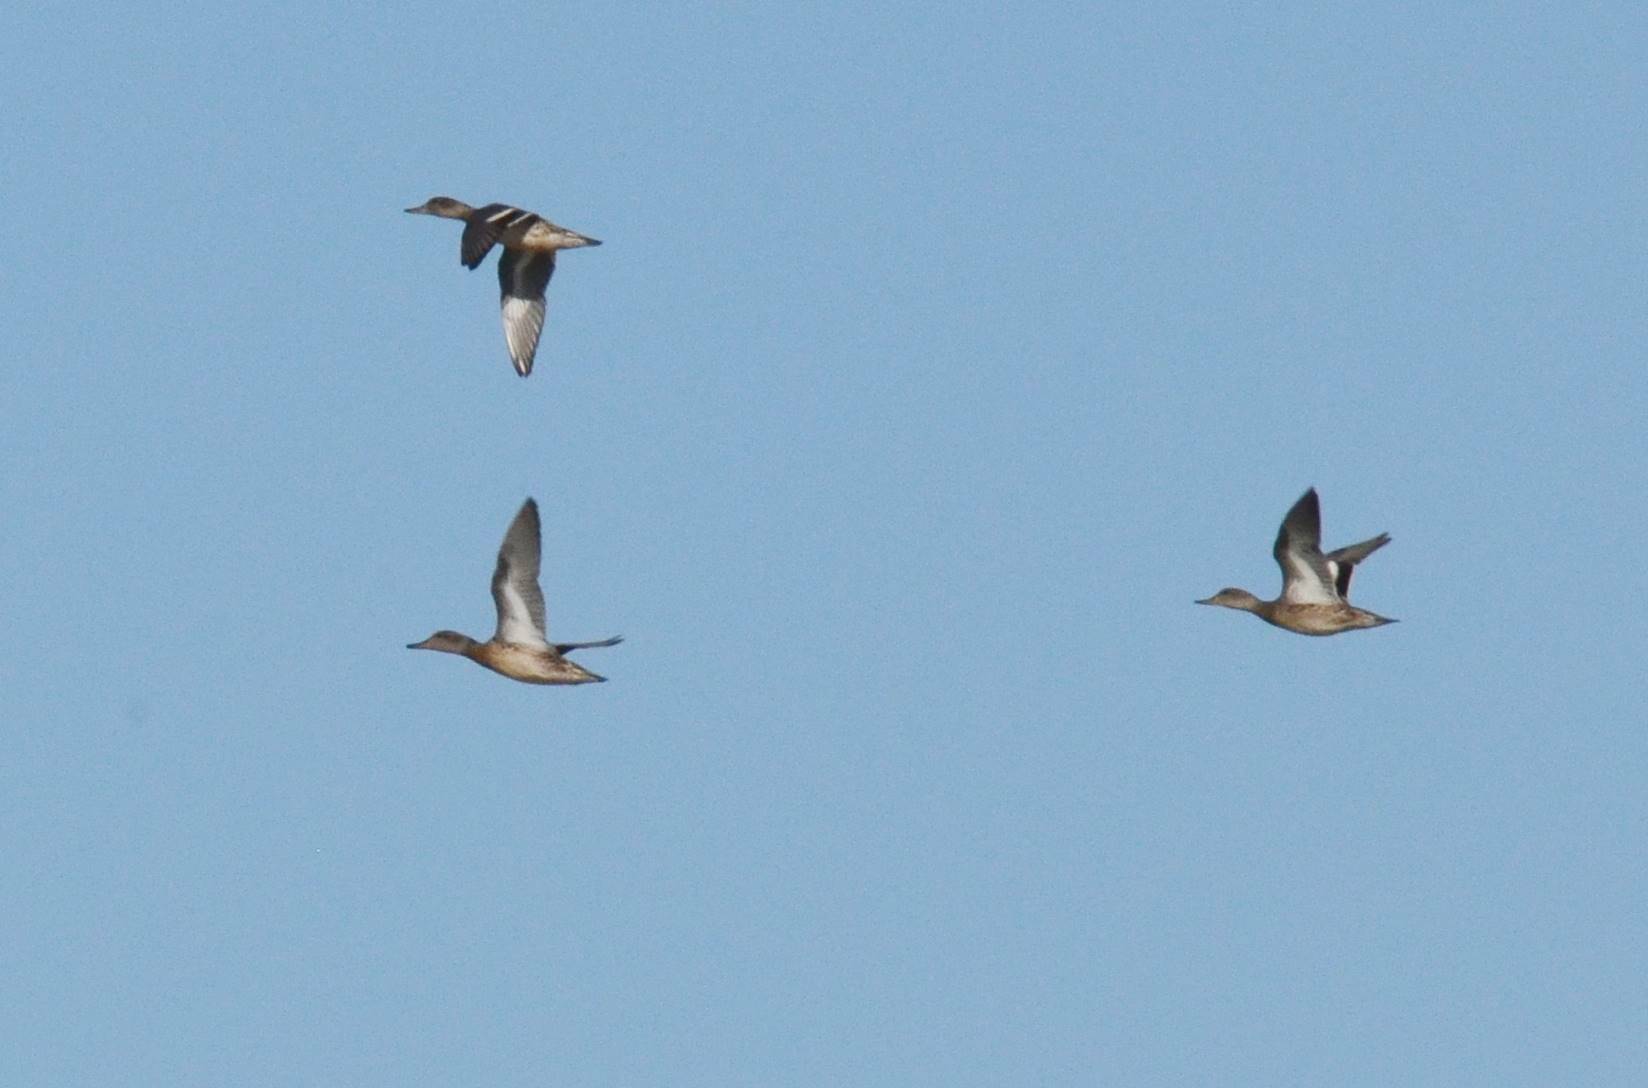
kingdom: Animalia
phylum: Chordata
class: Aves
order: Anseriformes
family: Anatidae
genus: Anas
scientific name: Anas crecca
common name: Eurasian teal
